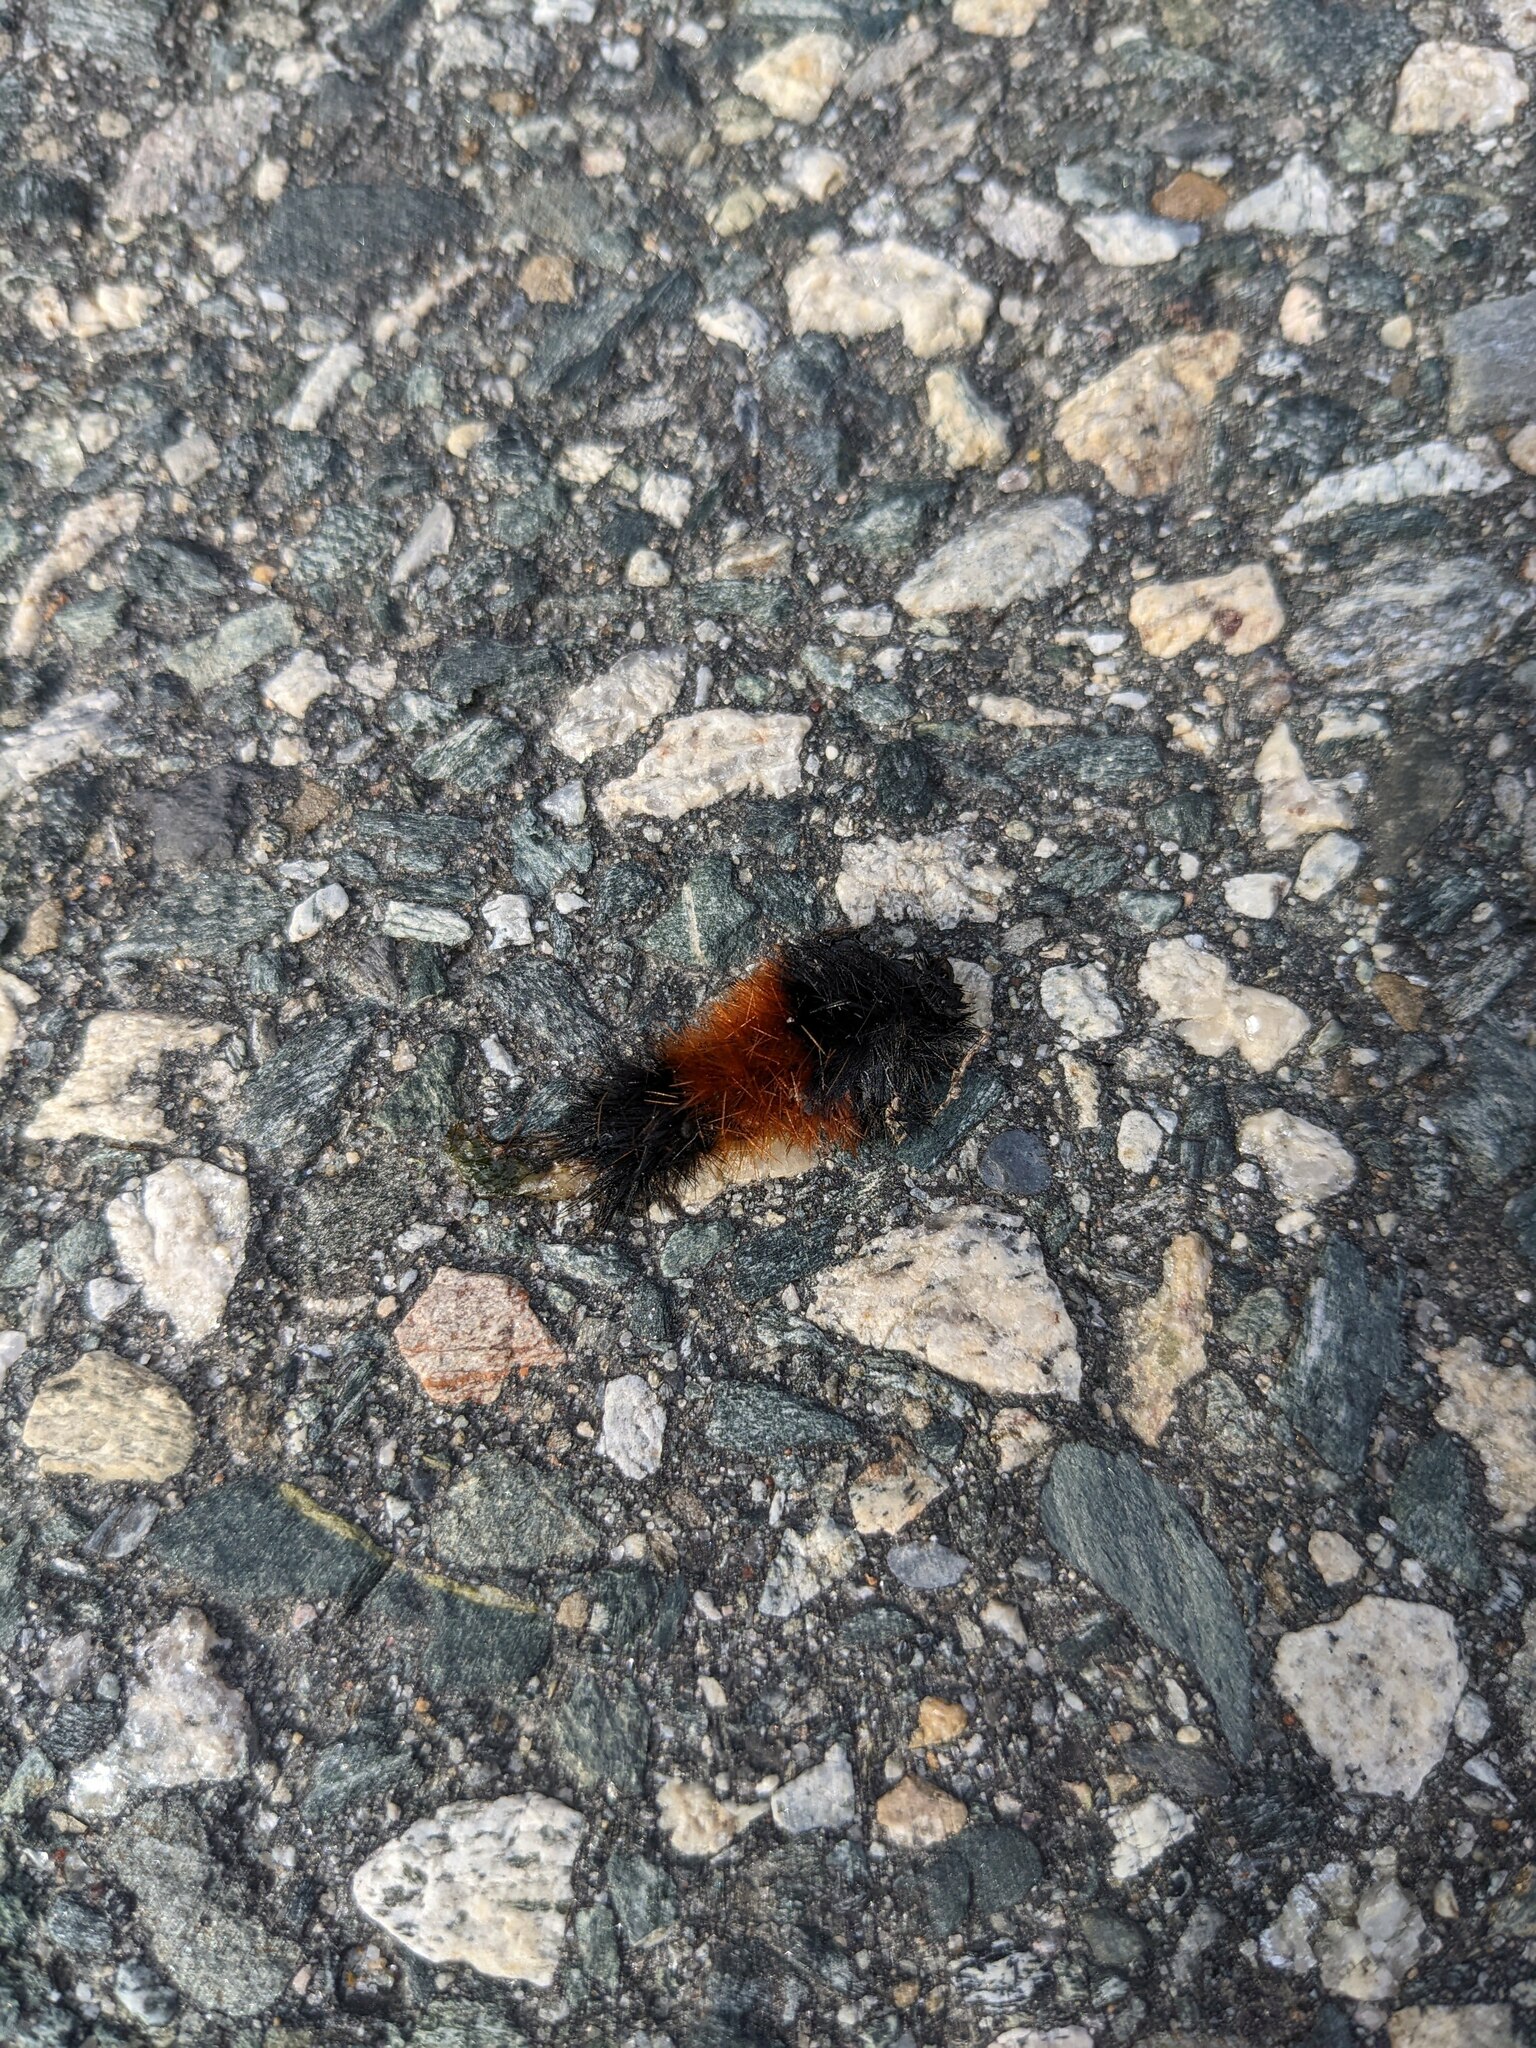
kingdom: Animalia
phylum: Arthropoda
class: Insecta
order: Lepidoptera
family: Erebidae
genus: Pyrrharctia
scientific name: Pyrrharctia isabella
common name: Isabella tiger moth
